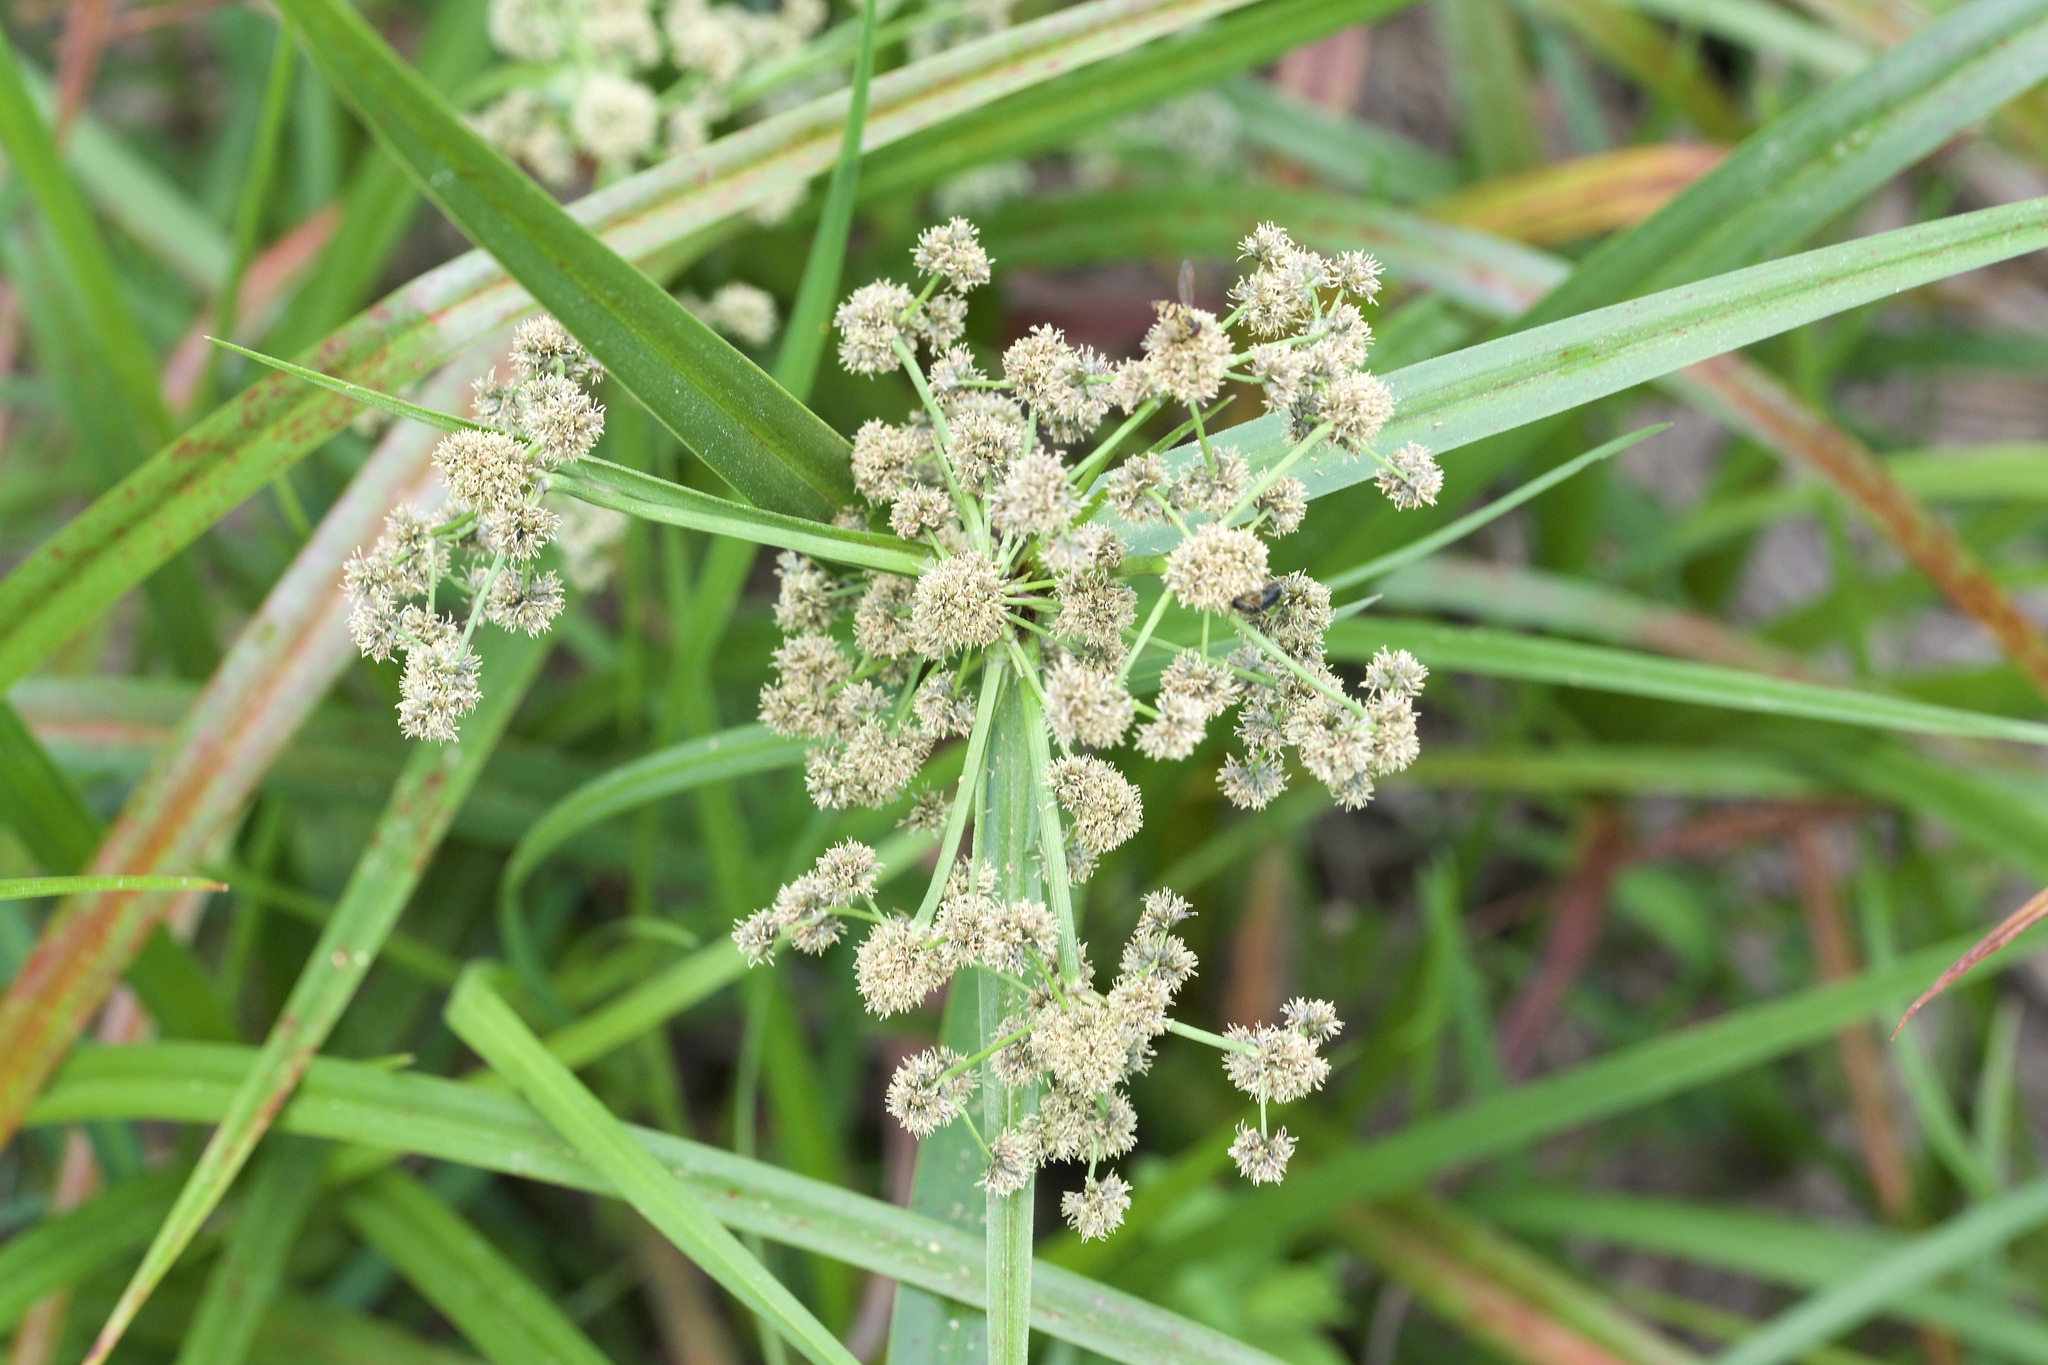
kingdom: Plantae
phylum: Tracheophyta
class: Liliopsida
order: Poales
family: Cyperaceae
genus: Scirpus
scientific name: Scirpus microcarpus
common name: Panicled bulrush
